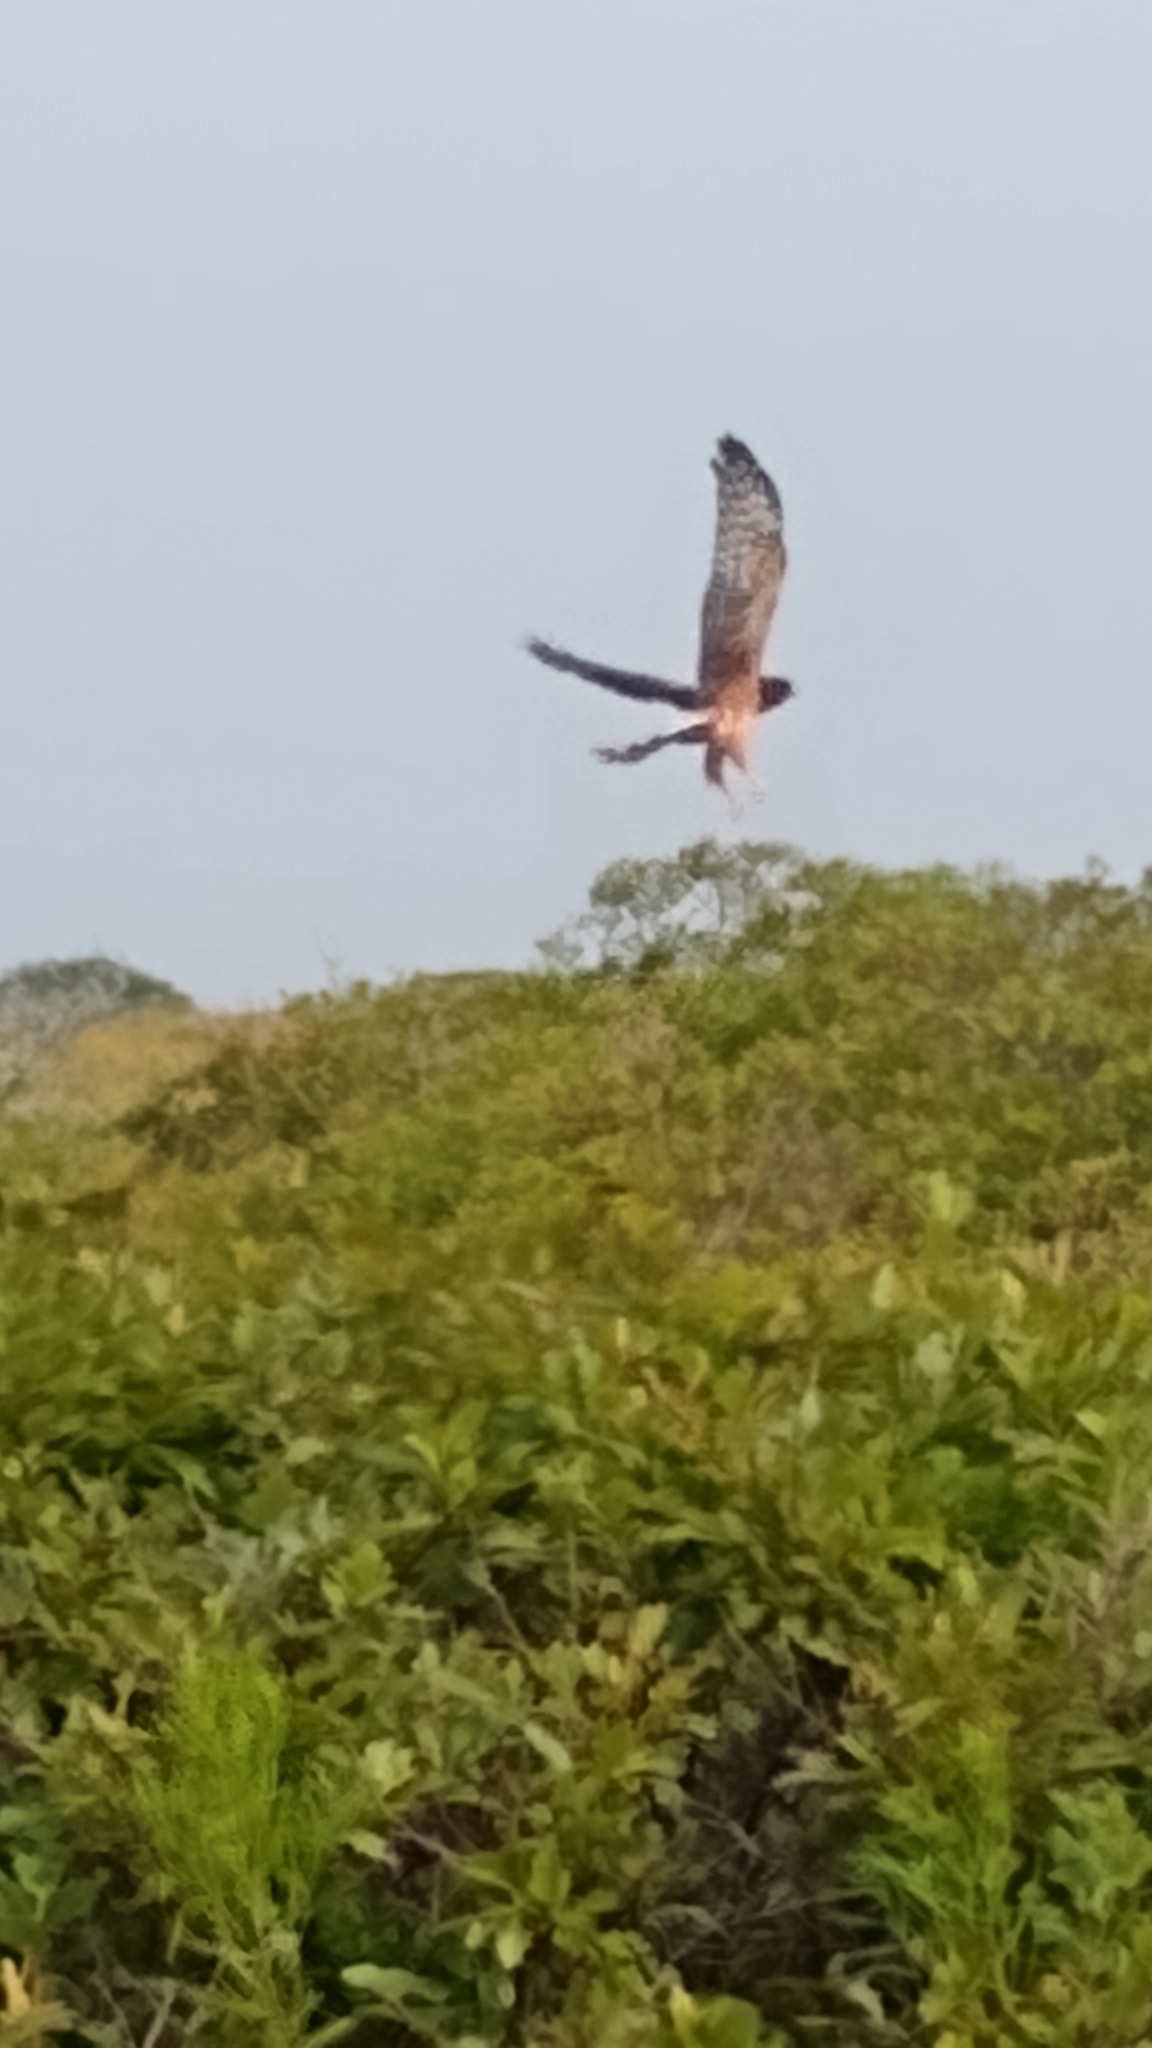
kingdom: Animalia
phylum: Chordata
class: Aves
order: Accipitriformes
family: Accipitridae
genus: Circus
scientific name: Circus cyaneus
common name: Hen harrier
